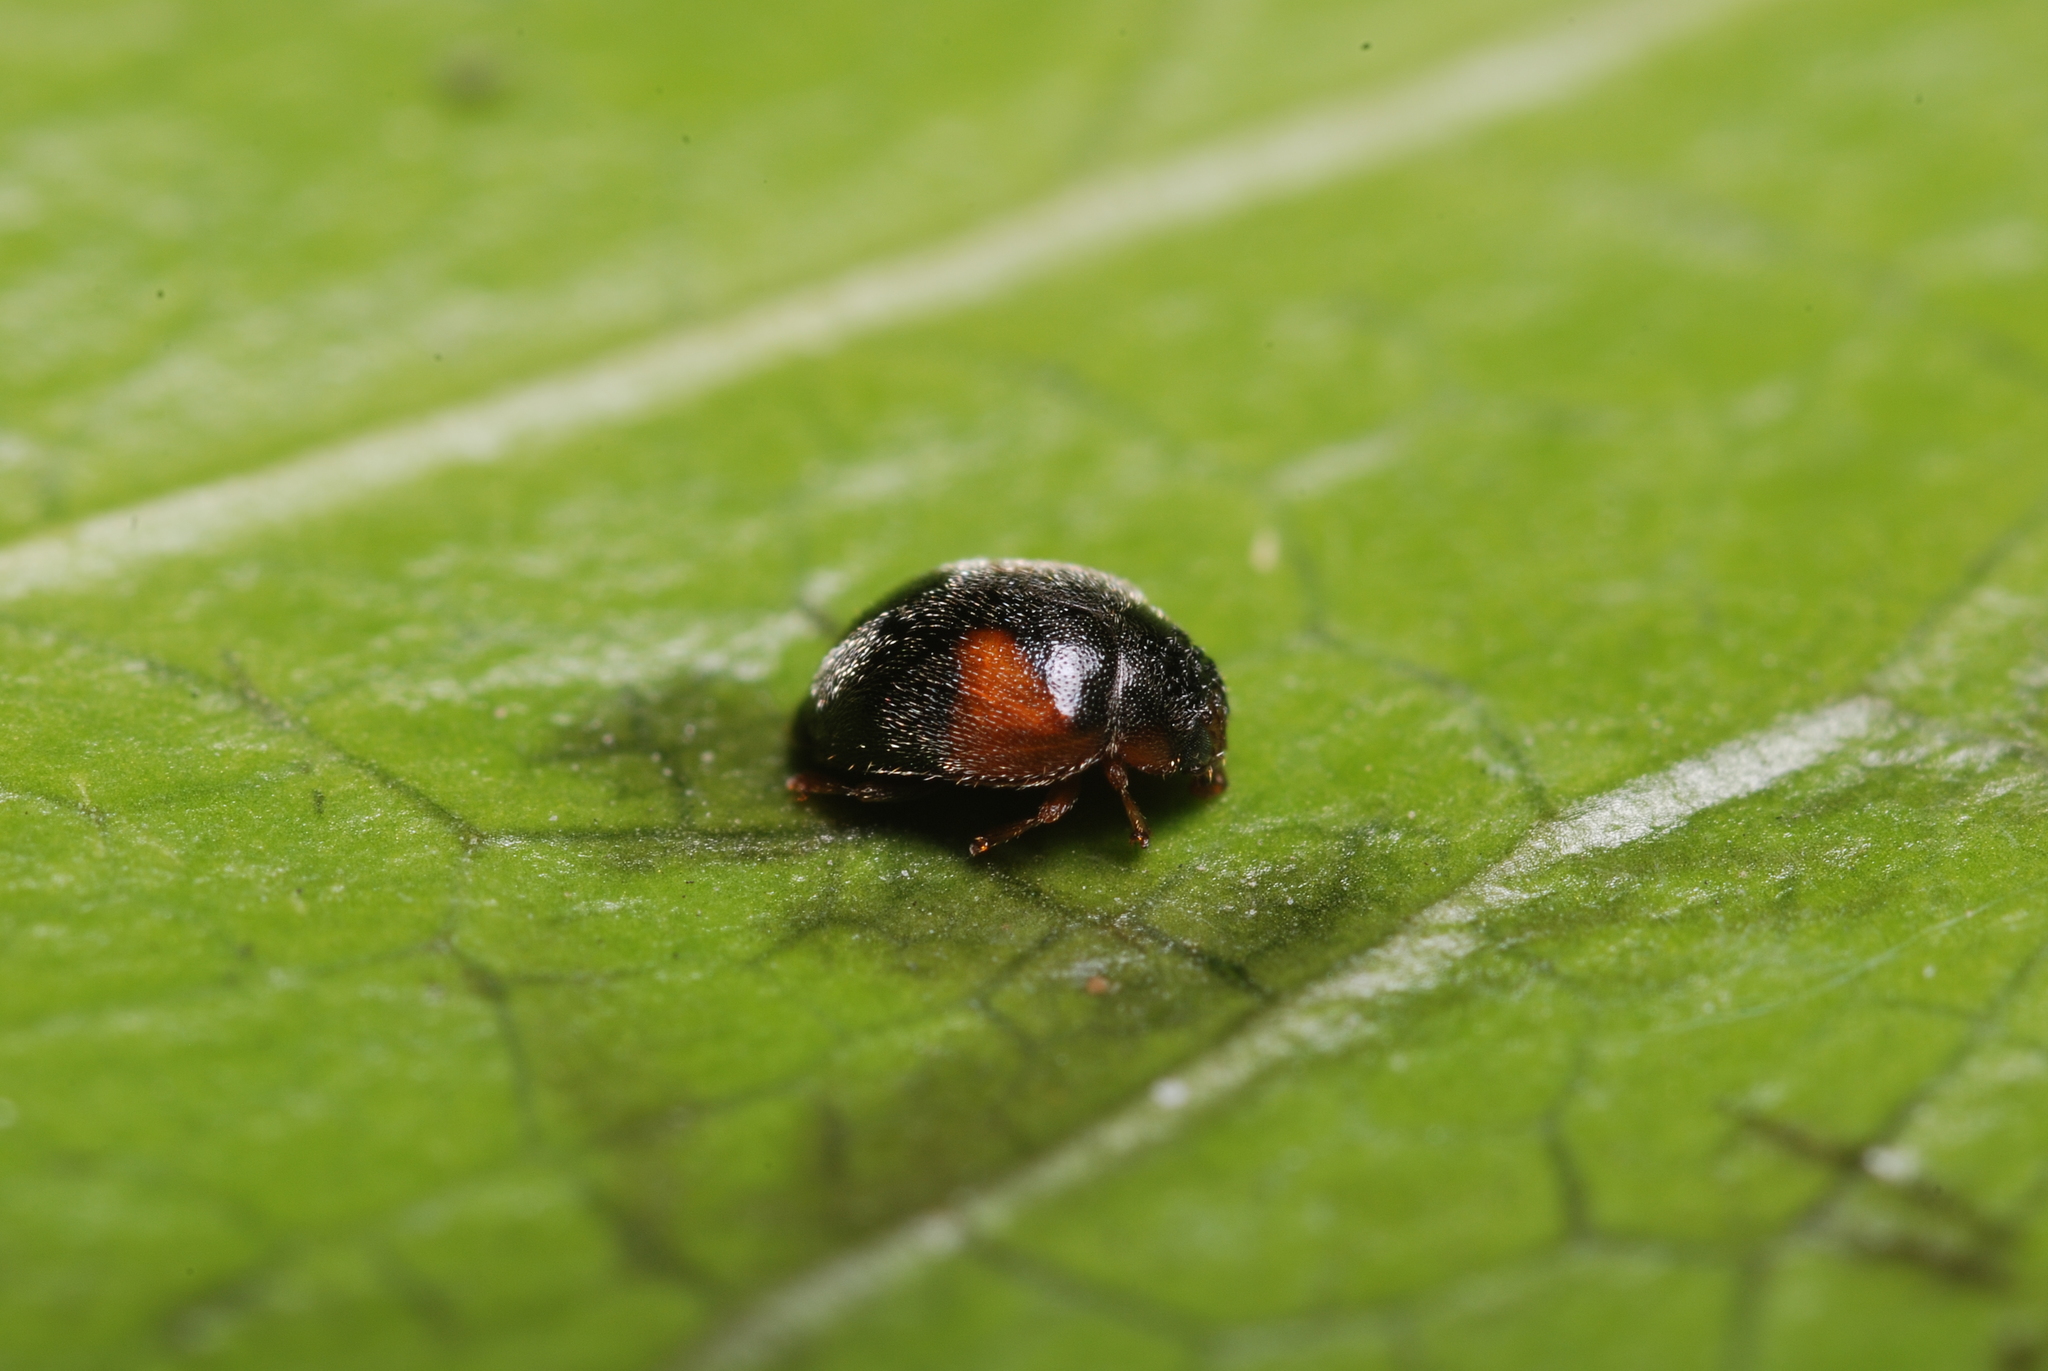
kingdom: Animalia
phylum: Arthropoda
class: Insecta
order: Coleoptera
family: Coccinellidae
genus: Scymnus
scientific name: Scymnus interruptus
